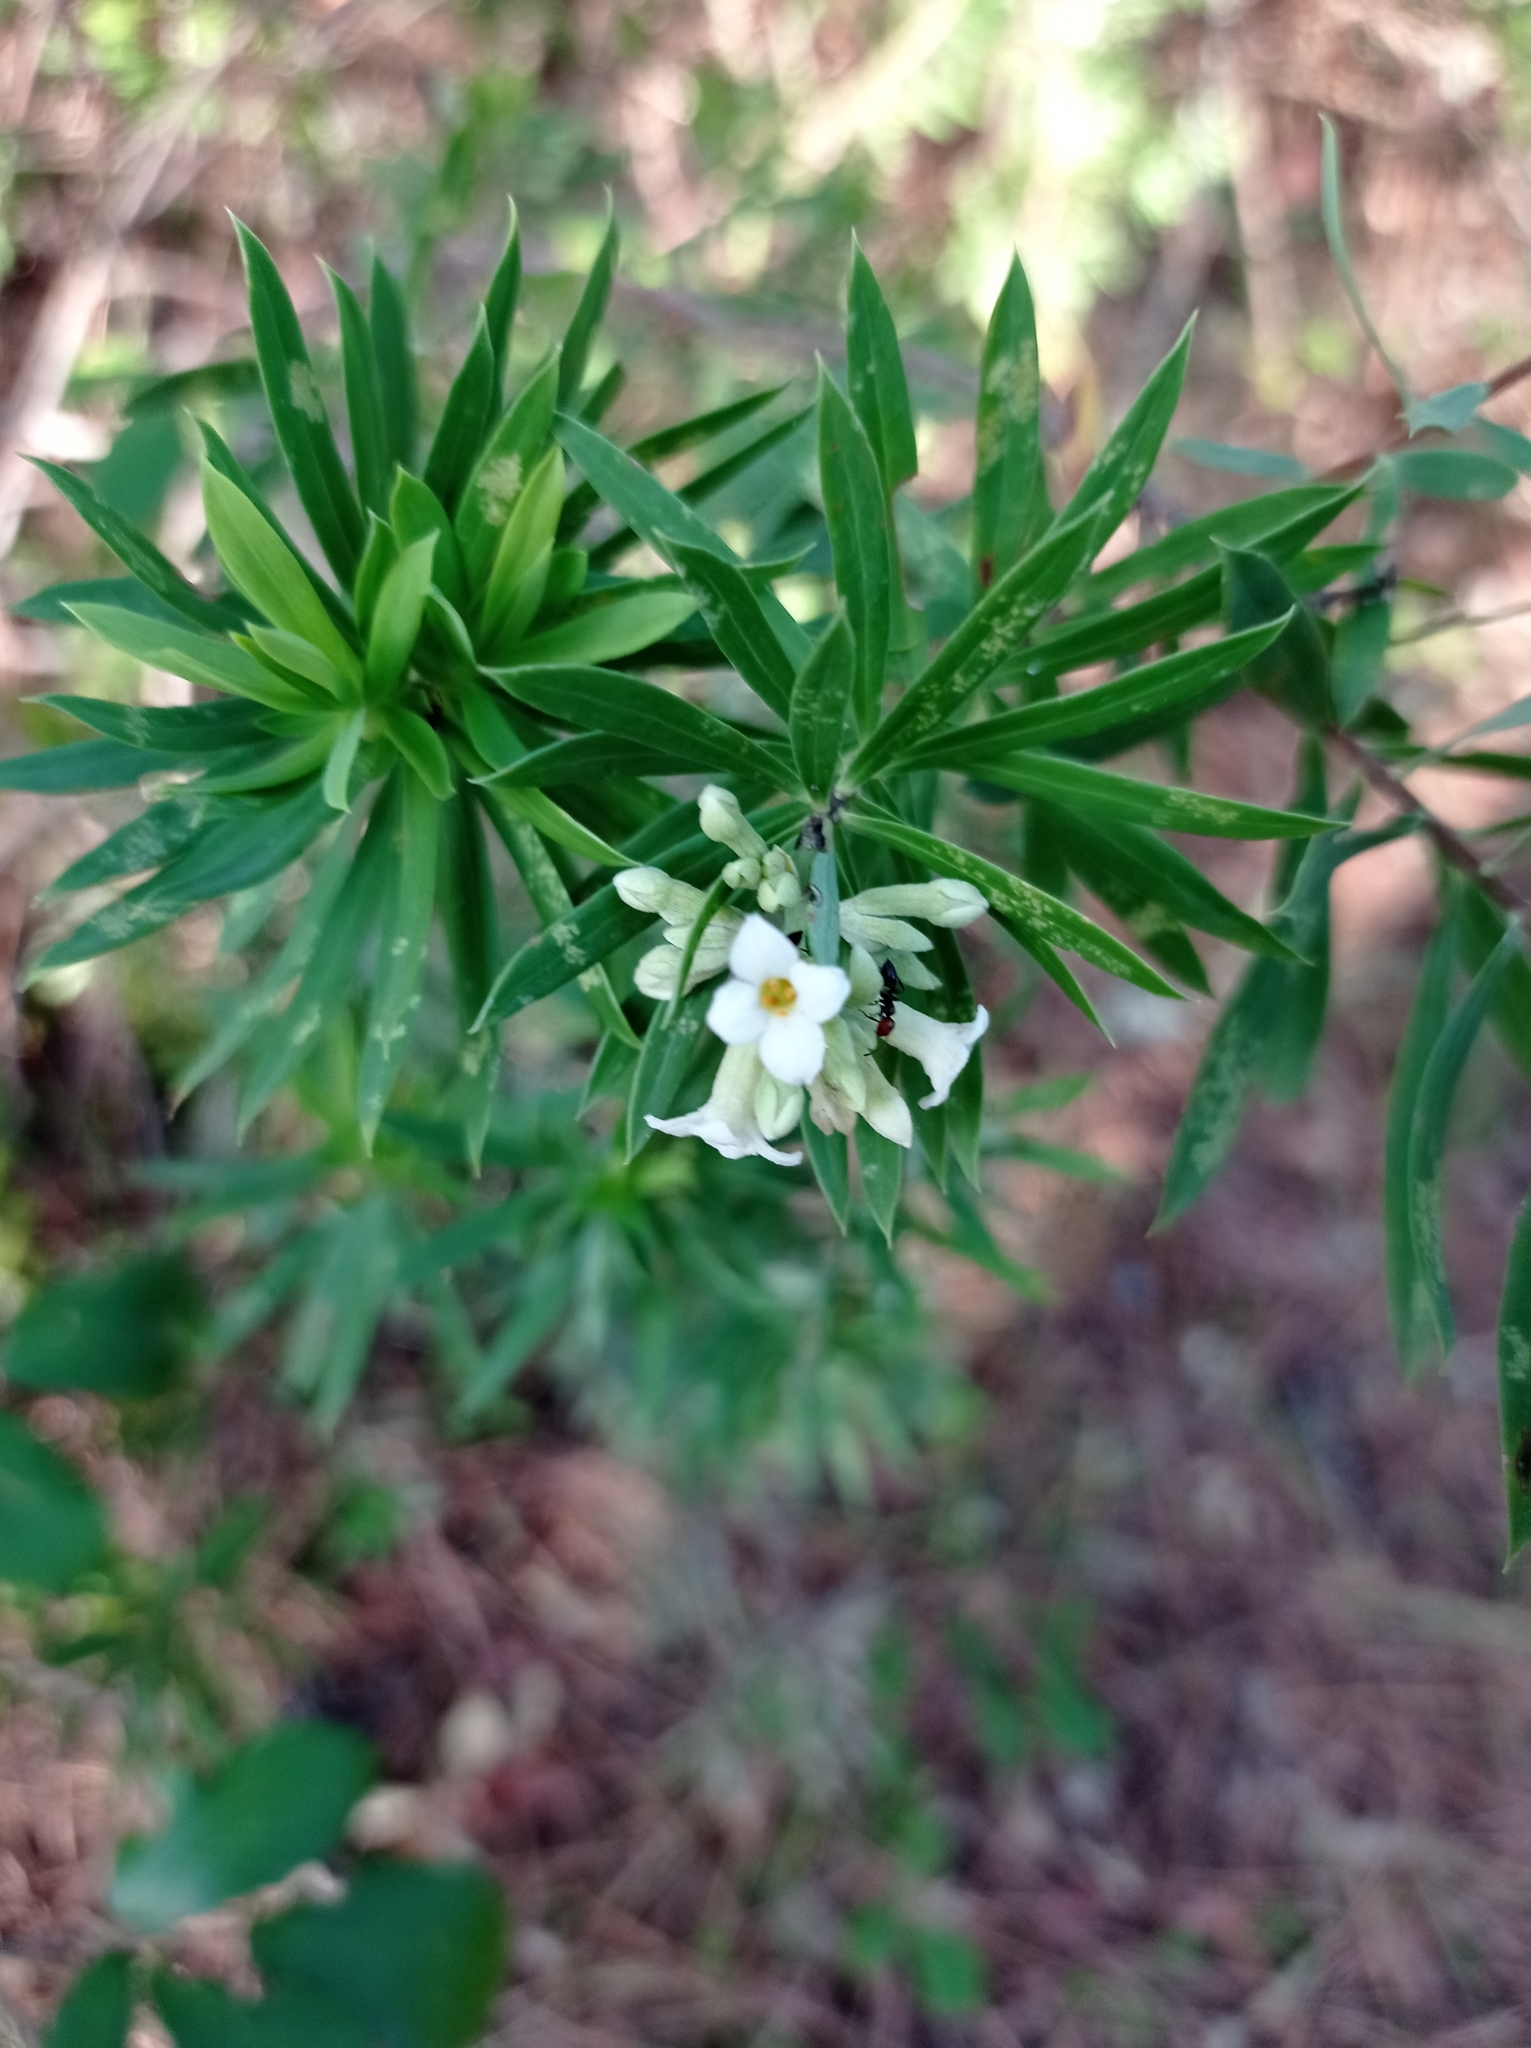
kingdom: Plantae
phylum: Tracheophyta
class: Magnoliopsida
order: Malvales
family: Thymelaeaceae
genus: Daphne
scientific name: Daphne gnidium
